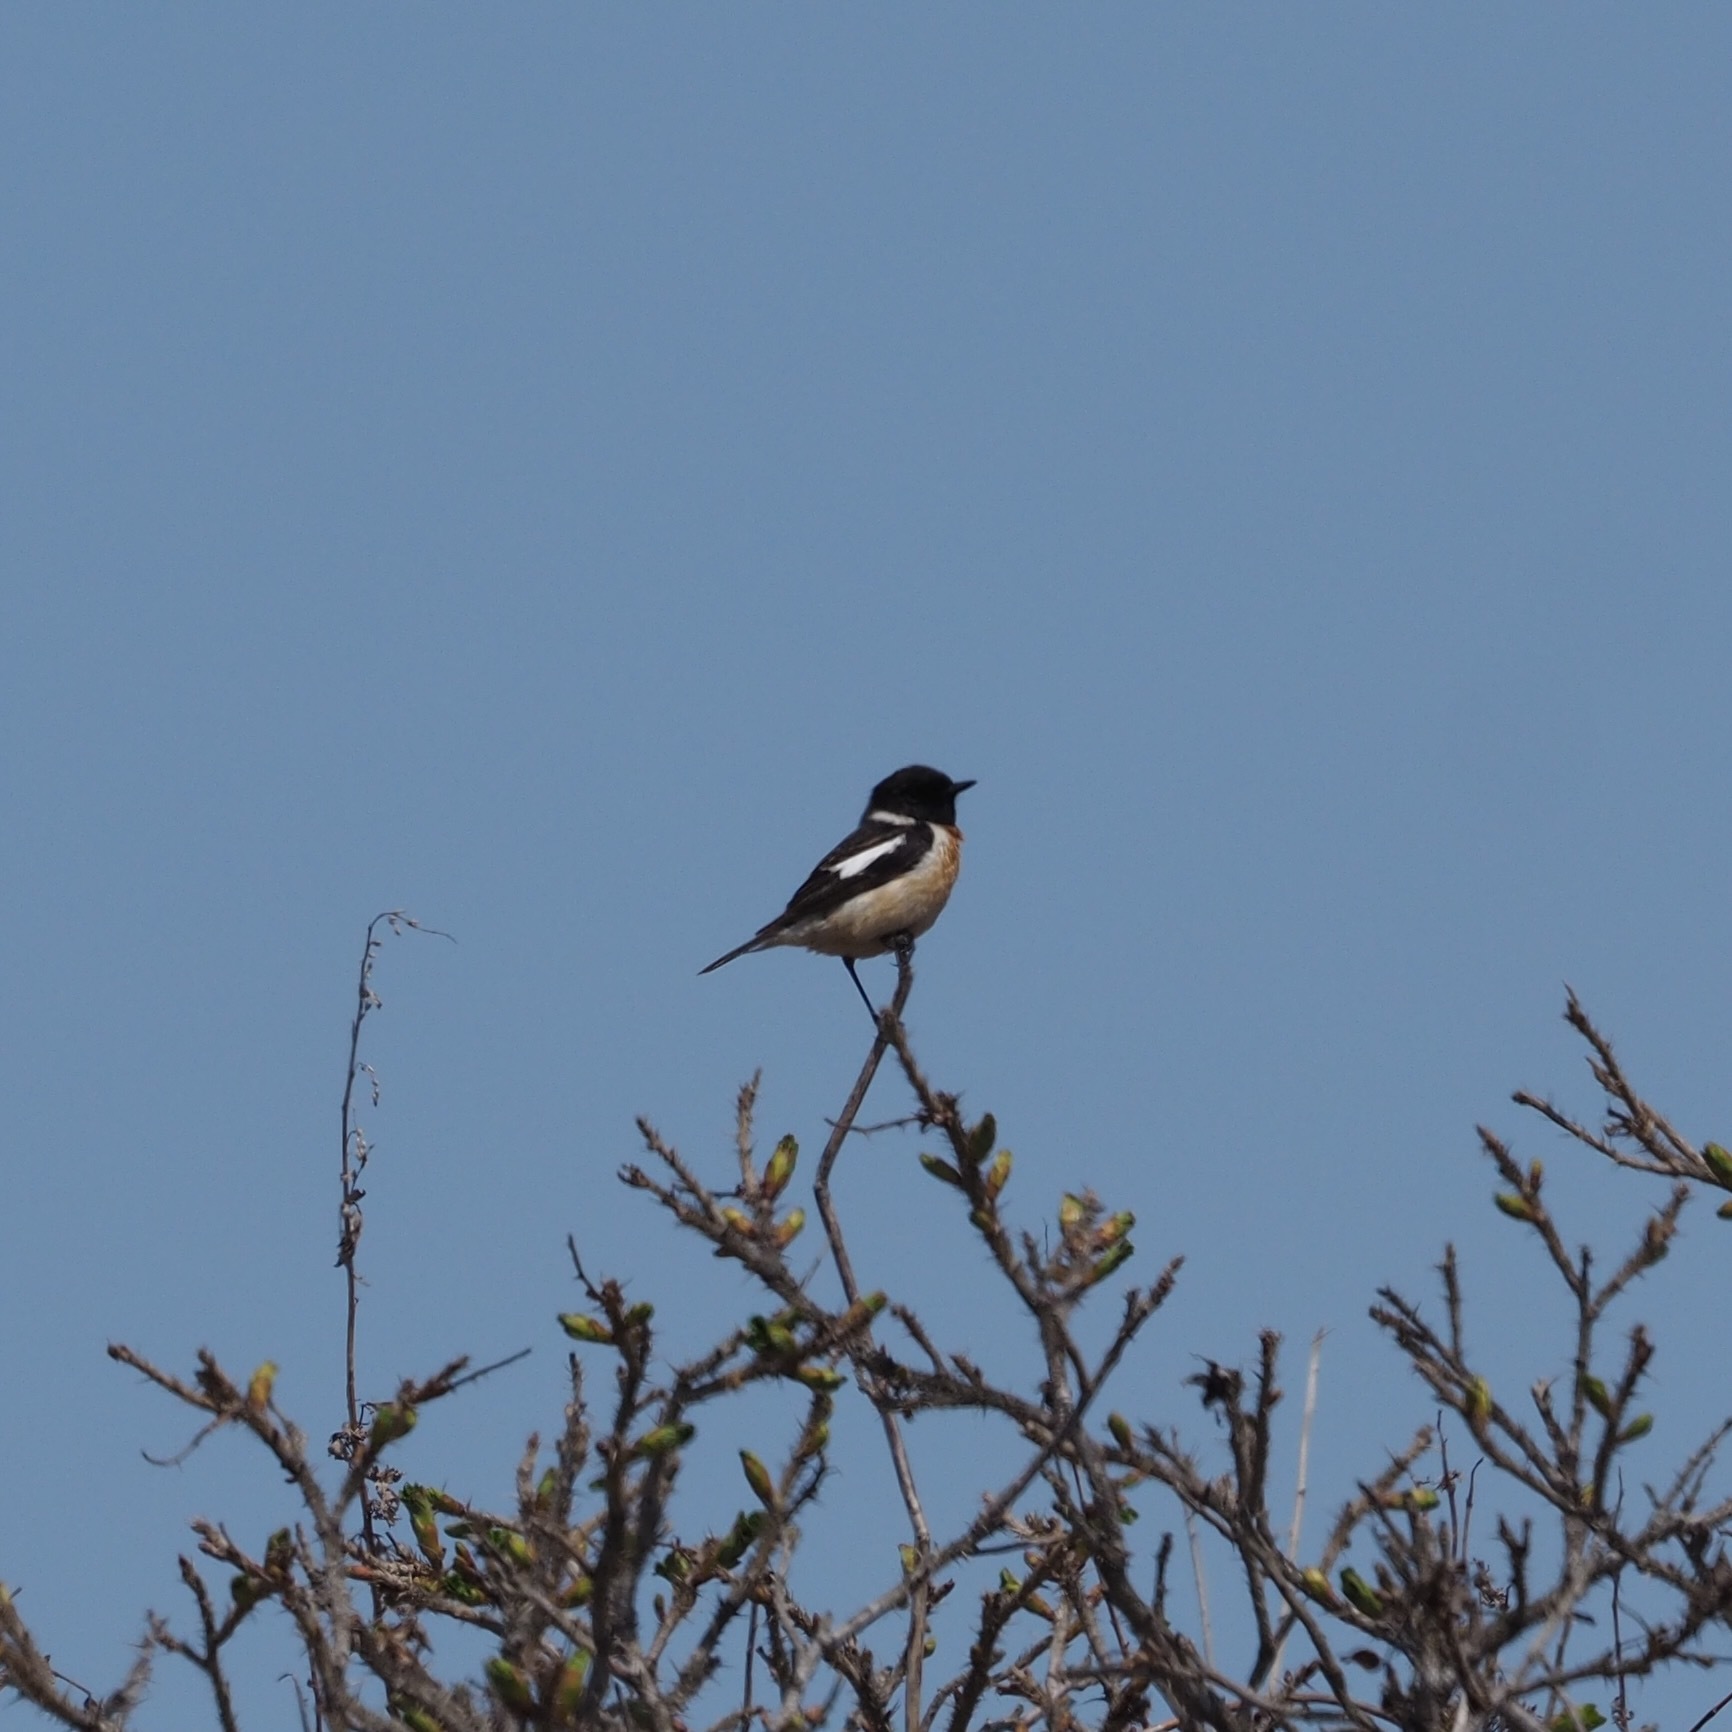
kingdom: Animalia
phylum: Chordata
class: Aves
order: Passeriformes
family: Muscicapidae
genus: Saxicola
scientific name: Saxicola stejnegeri
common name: Stejneger's stonechat
